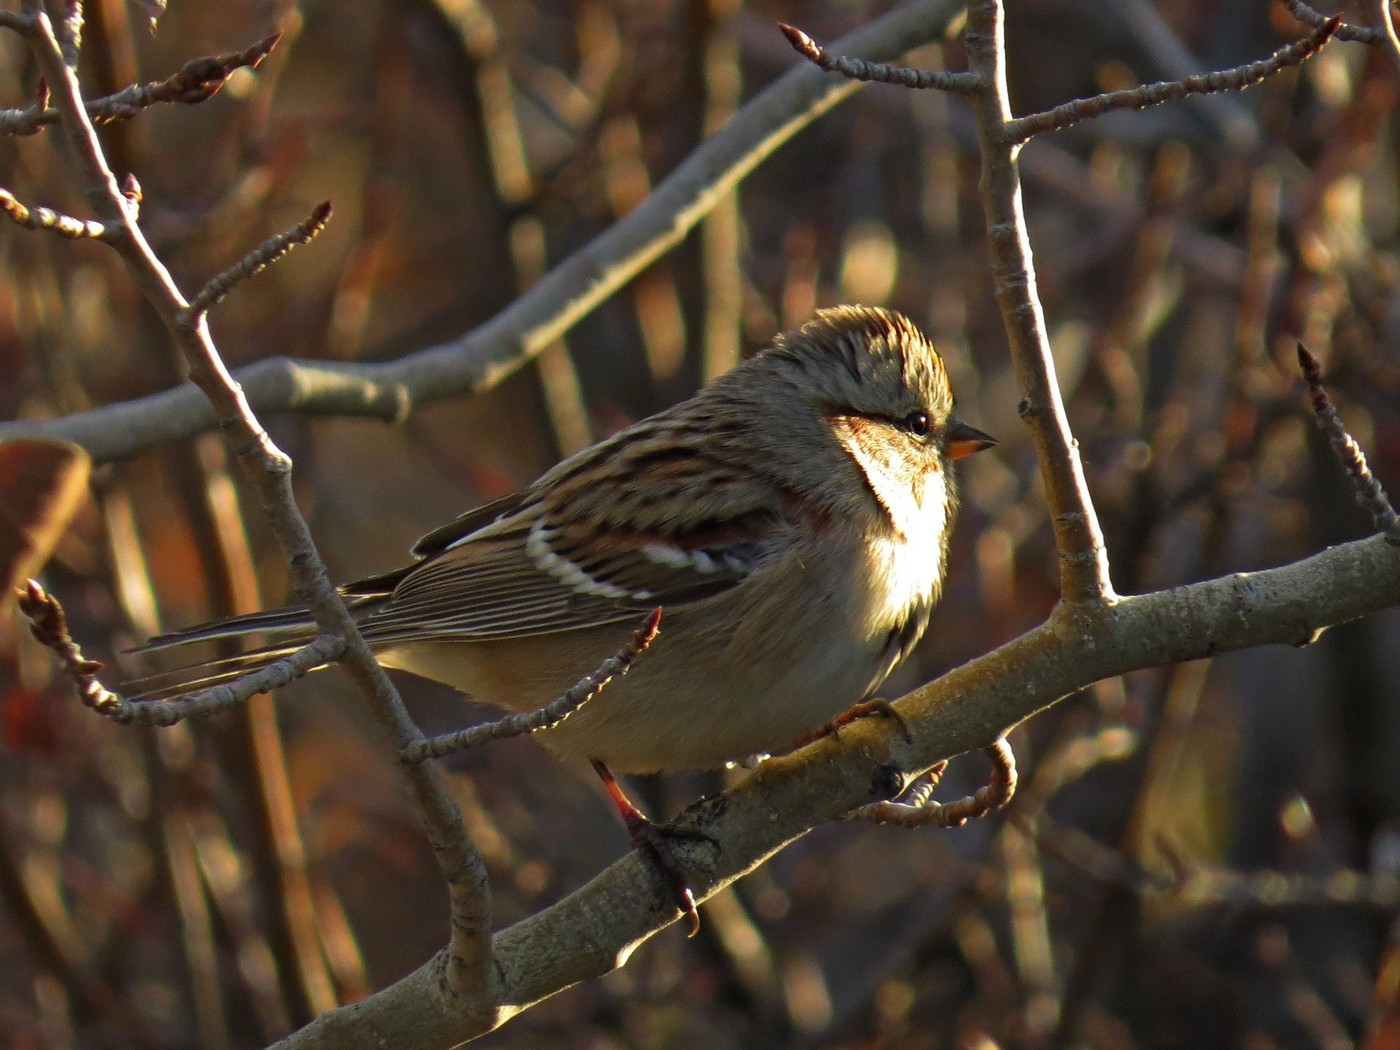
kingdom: Animalia
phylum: Chordata
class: Aves
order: Passeriformes
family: Passerellidae
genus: Spizelloides
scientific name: Spizelloides arborea
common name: American tree sparrow
